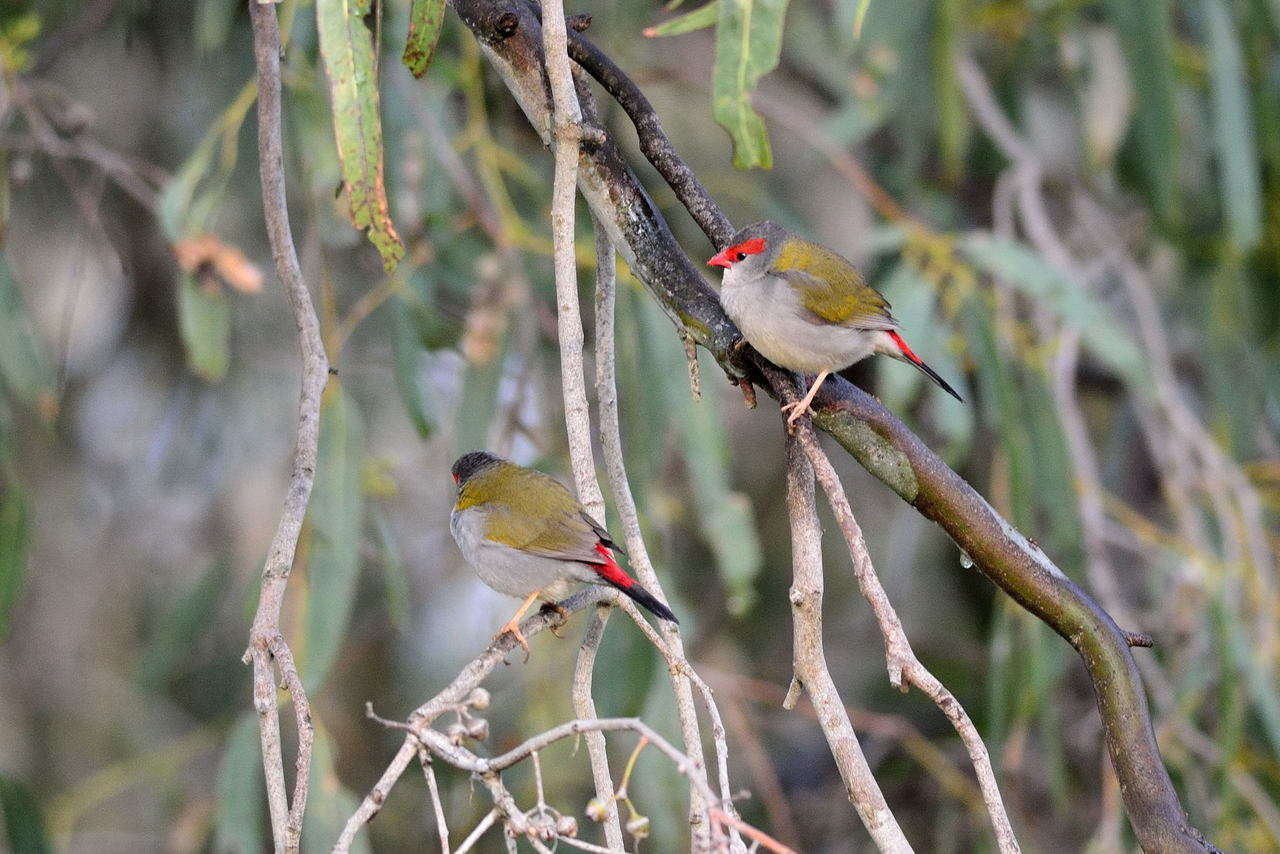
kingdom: Animalia
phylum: Chordata
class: Aves
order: Passeriformes
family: Estrildidae
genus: Neochmia
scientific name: Neochmia temporalis
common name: Red-browed finch
